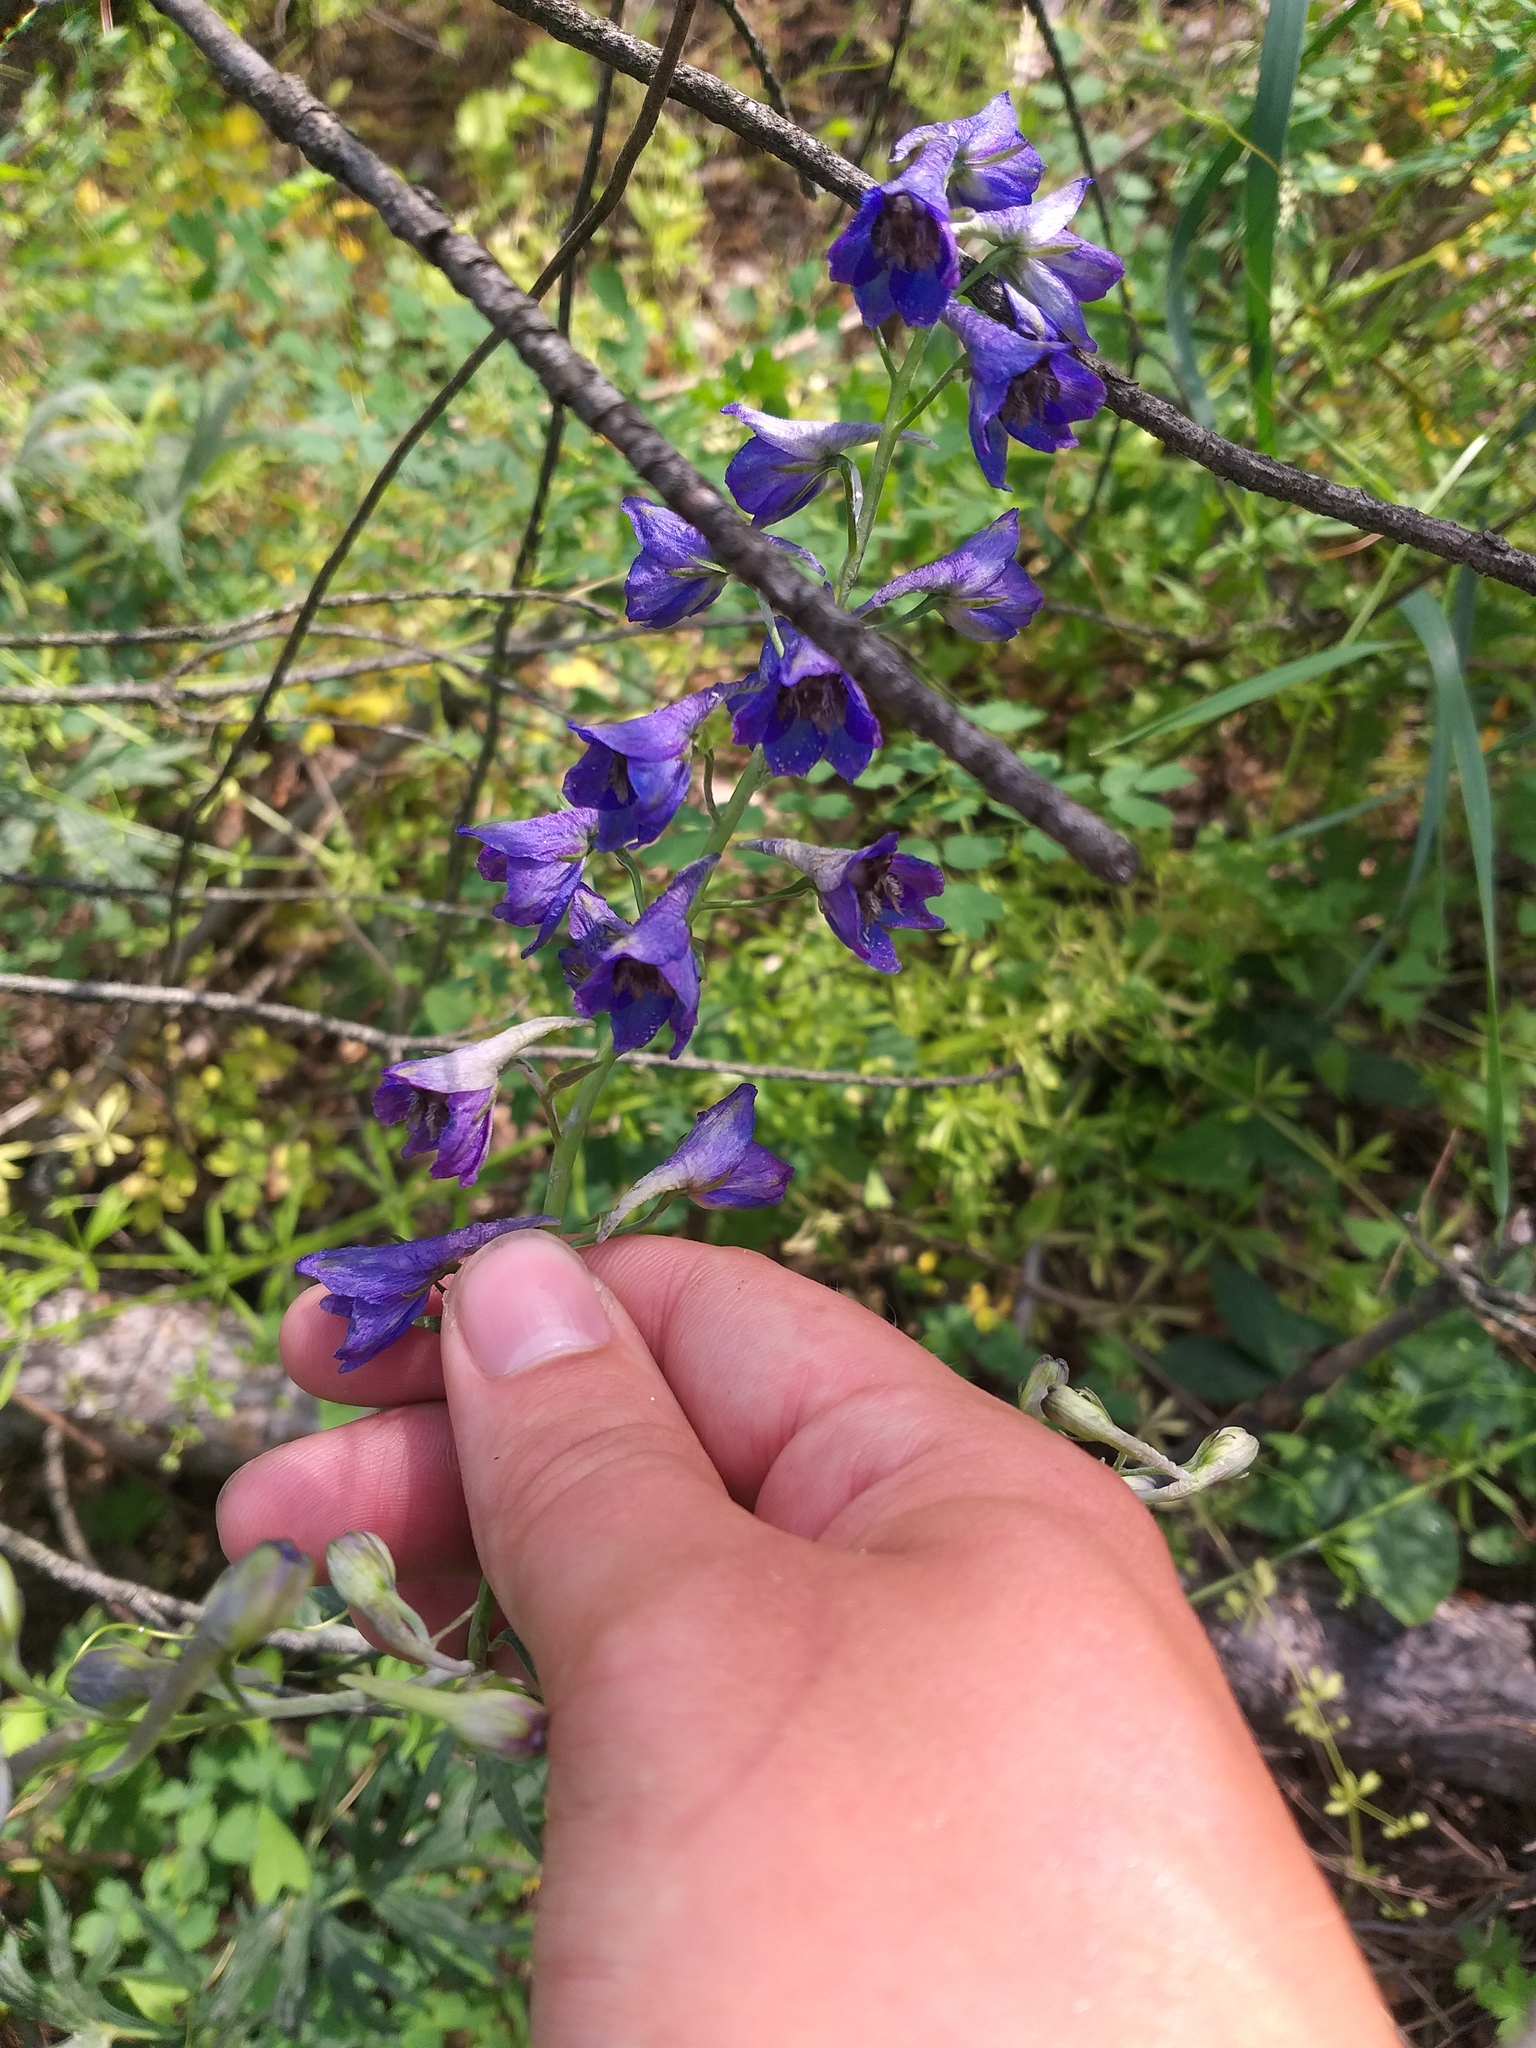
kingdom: Plantae
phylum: Tracheophyta
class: Magnoliopsida
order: Ranunculales
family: Ranunculaceae
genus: Delphinium
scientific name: Delphinium cuneatum
